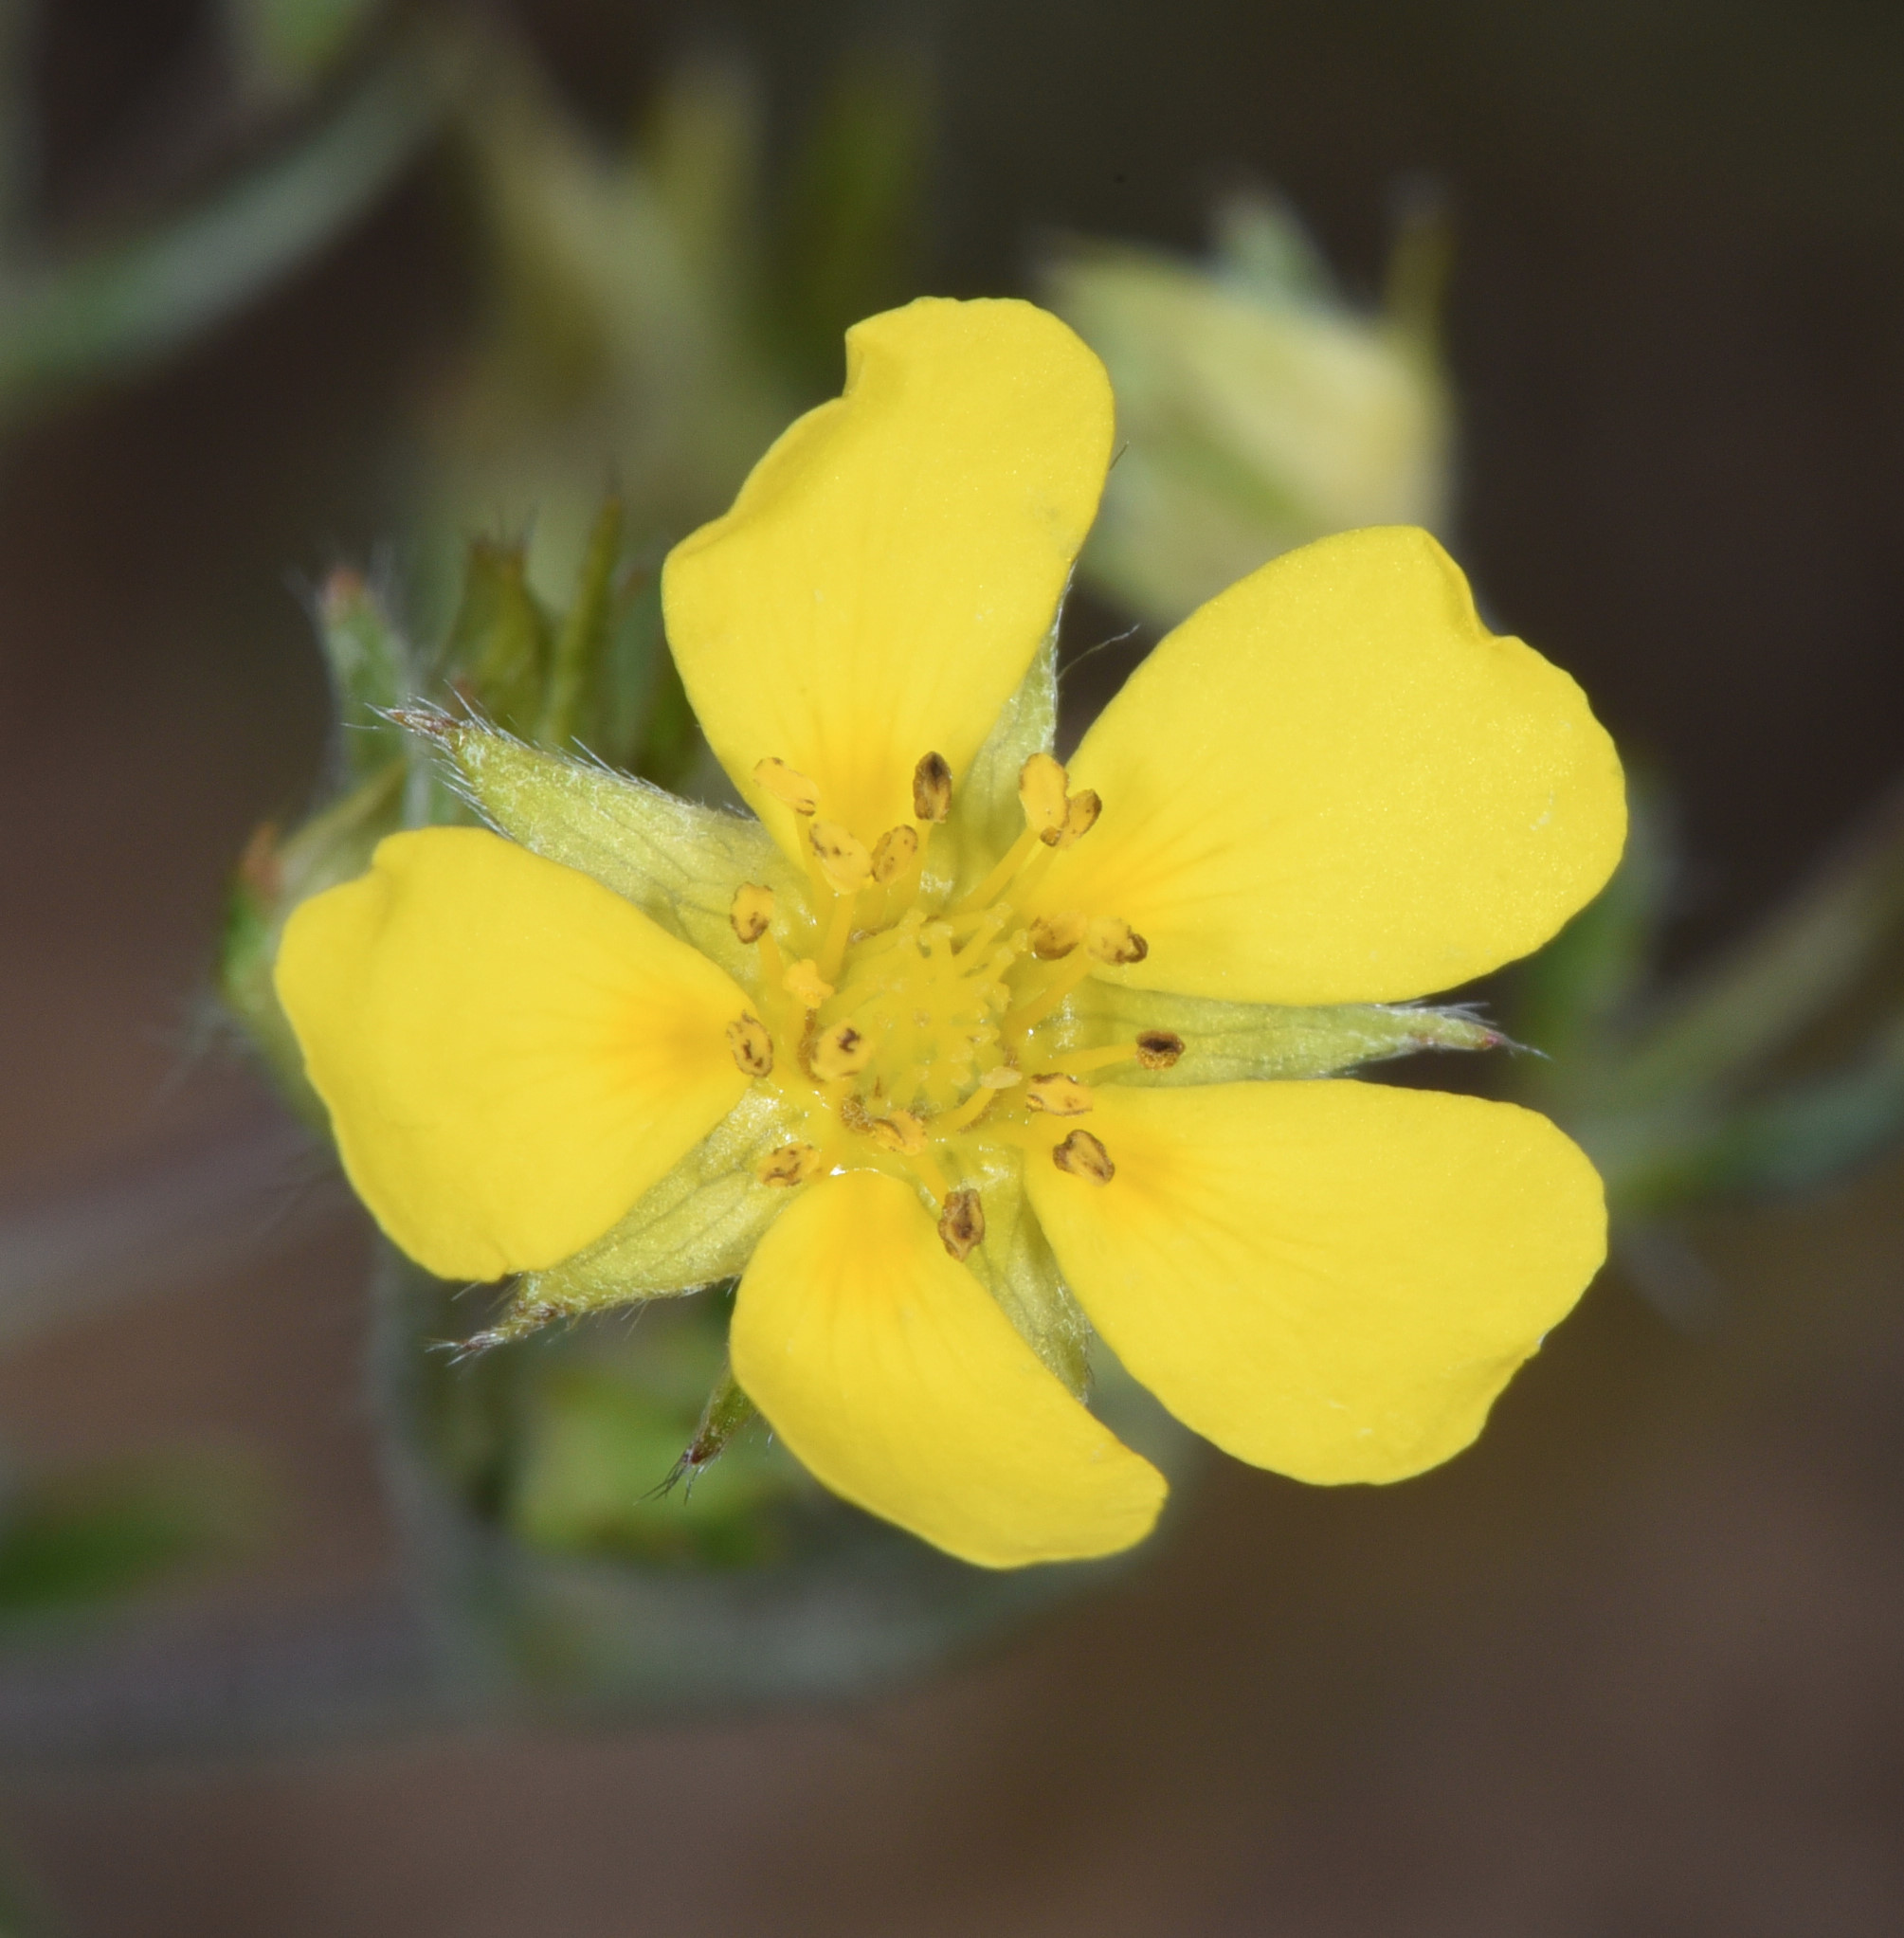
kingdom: Plantae
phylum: Tracheophyta
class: Magnoliopsida
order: Rosales
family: Rosaceae
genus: Potentilla
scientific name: Potentilla hippiana
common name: Woolly cinquefoil
